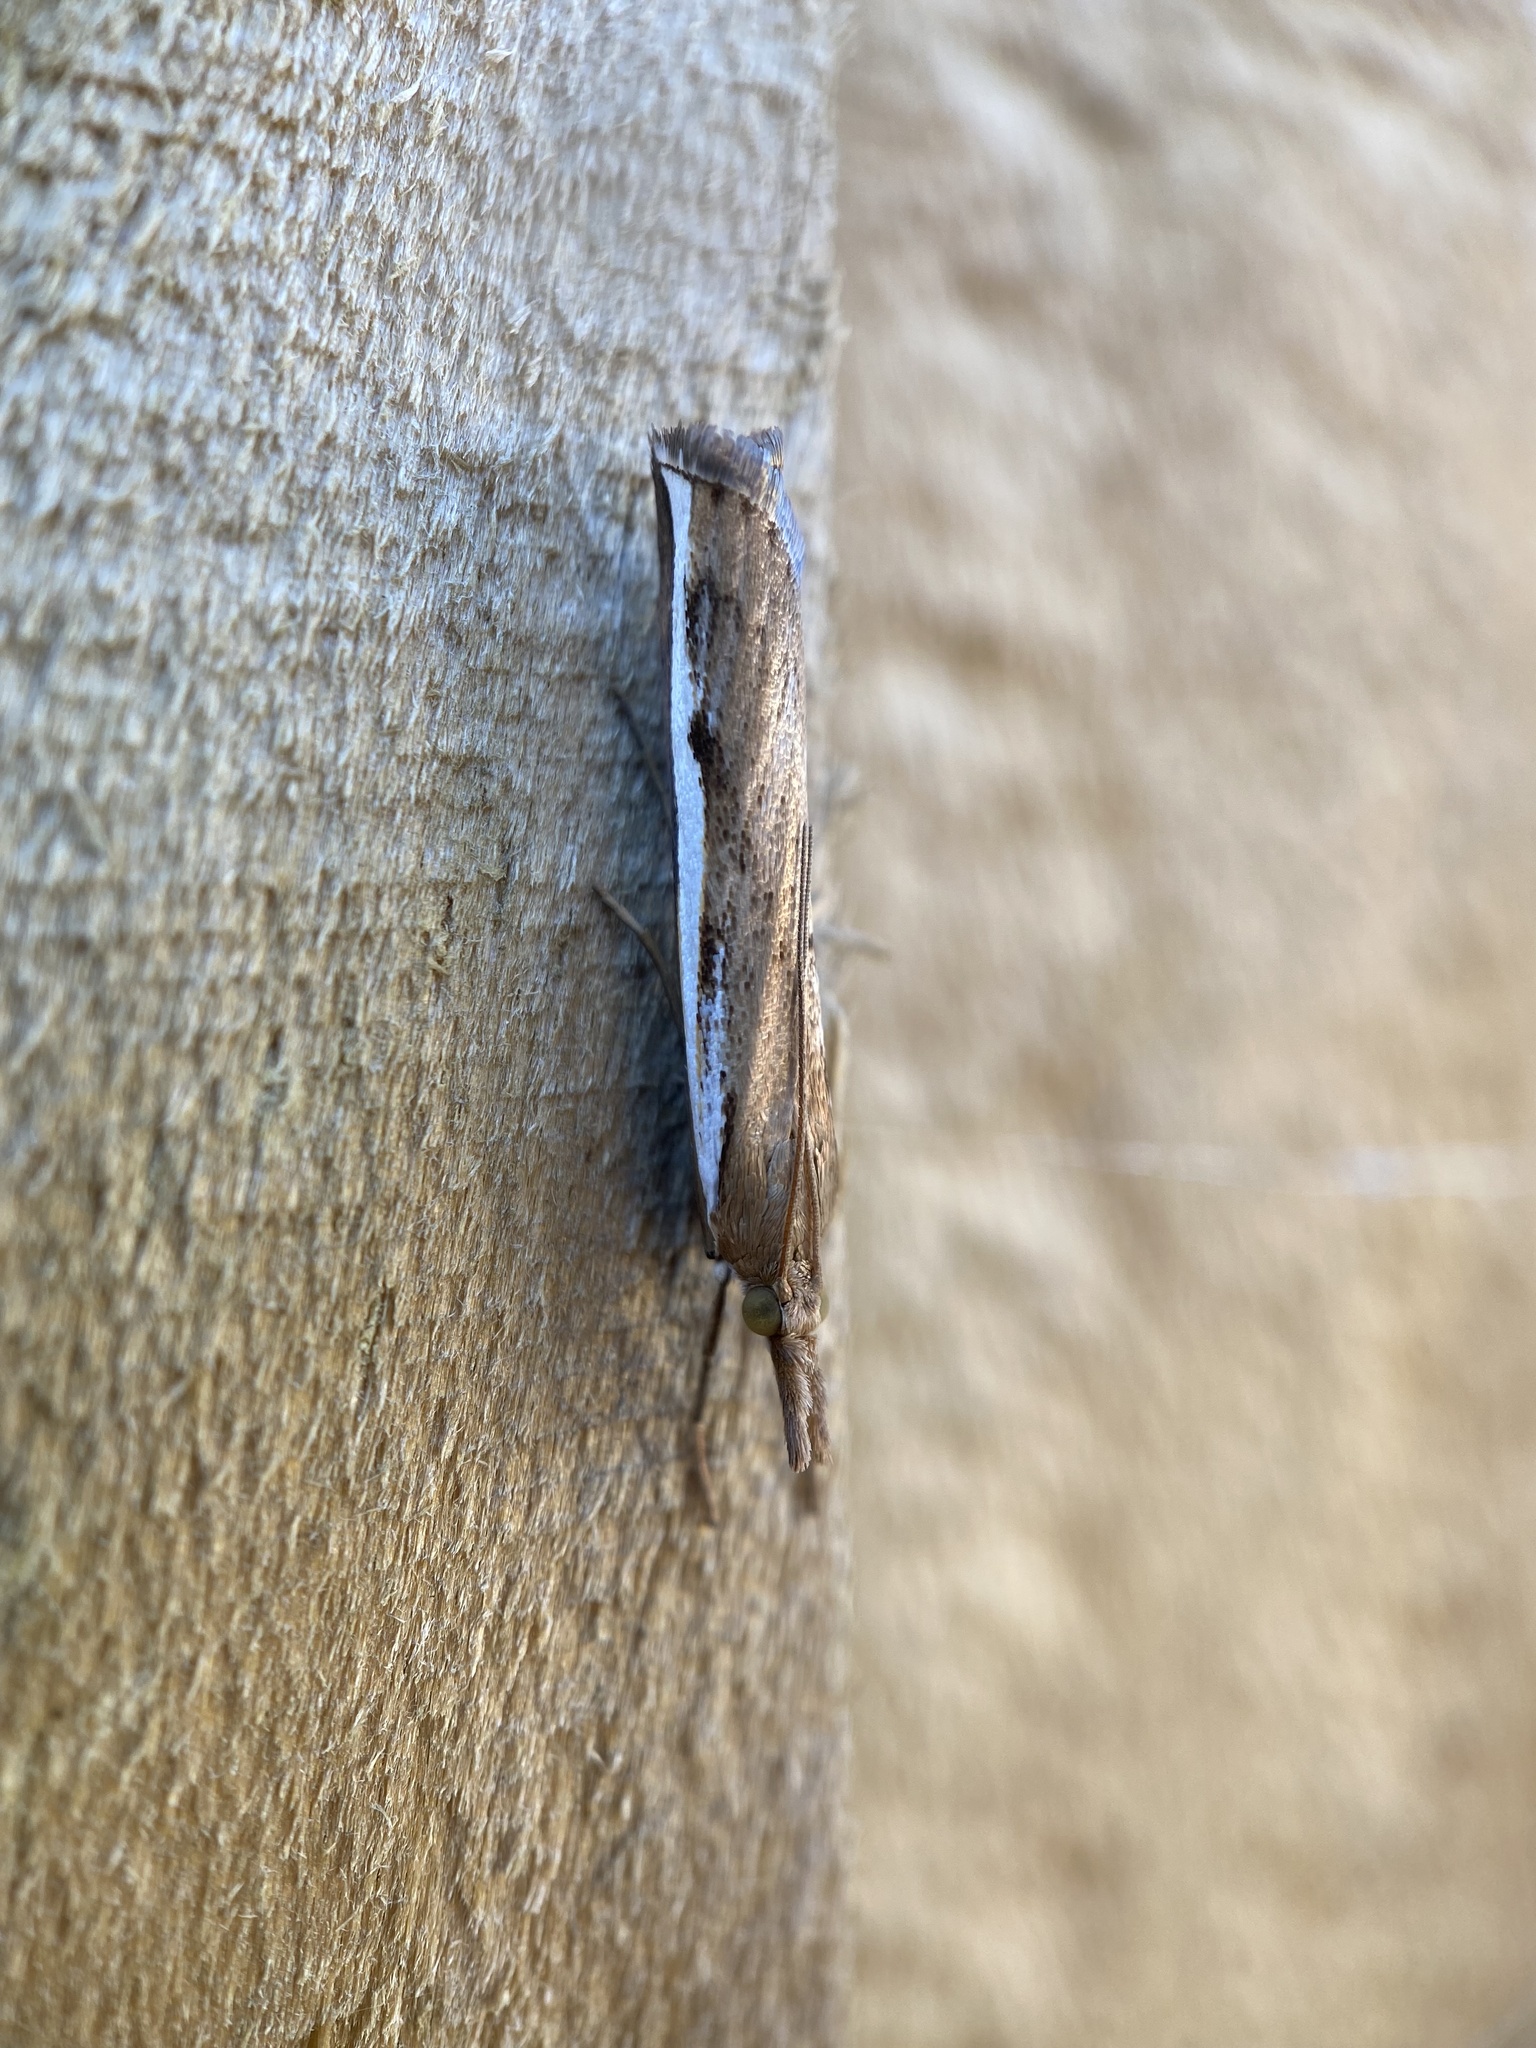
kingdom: Animalia
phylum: Arthropoda
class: Insecta
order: Lepidoptera
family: Crambidae
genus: Orocrambus
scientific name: Orocrambus flexuosellus
